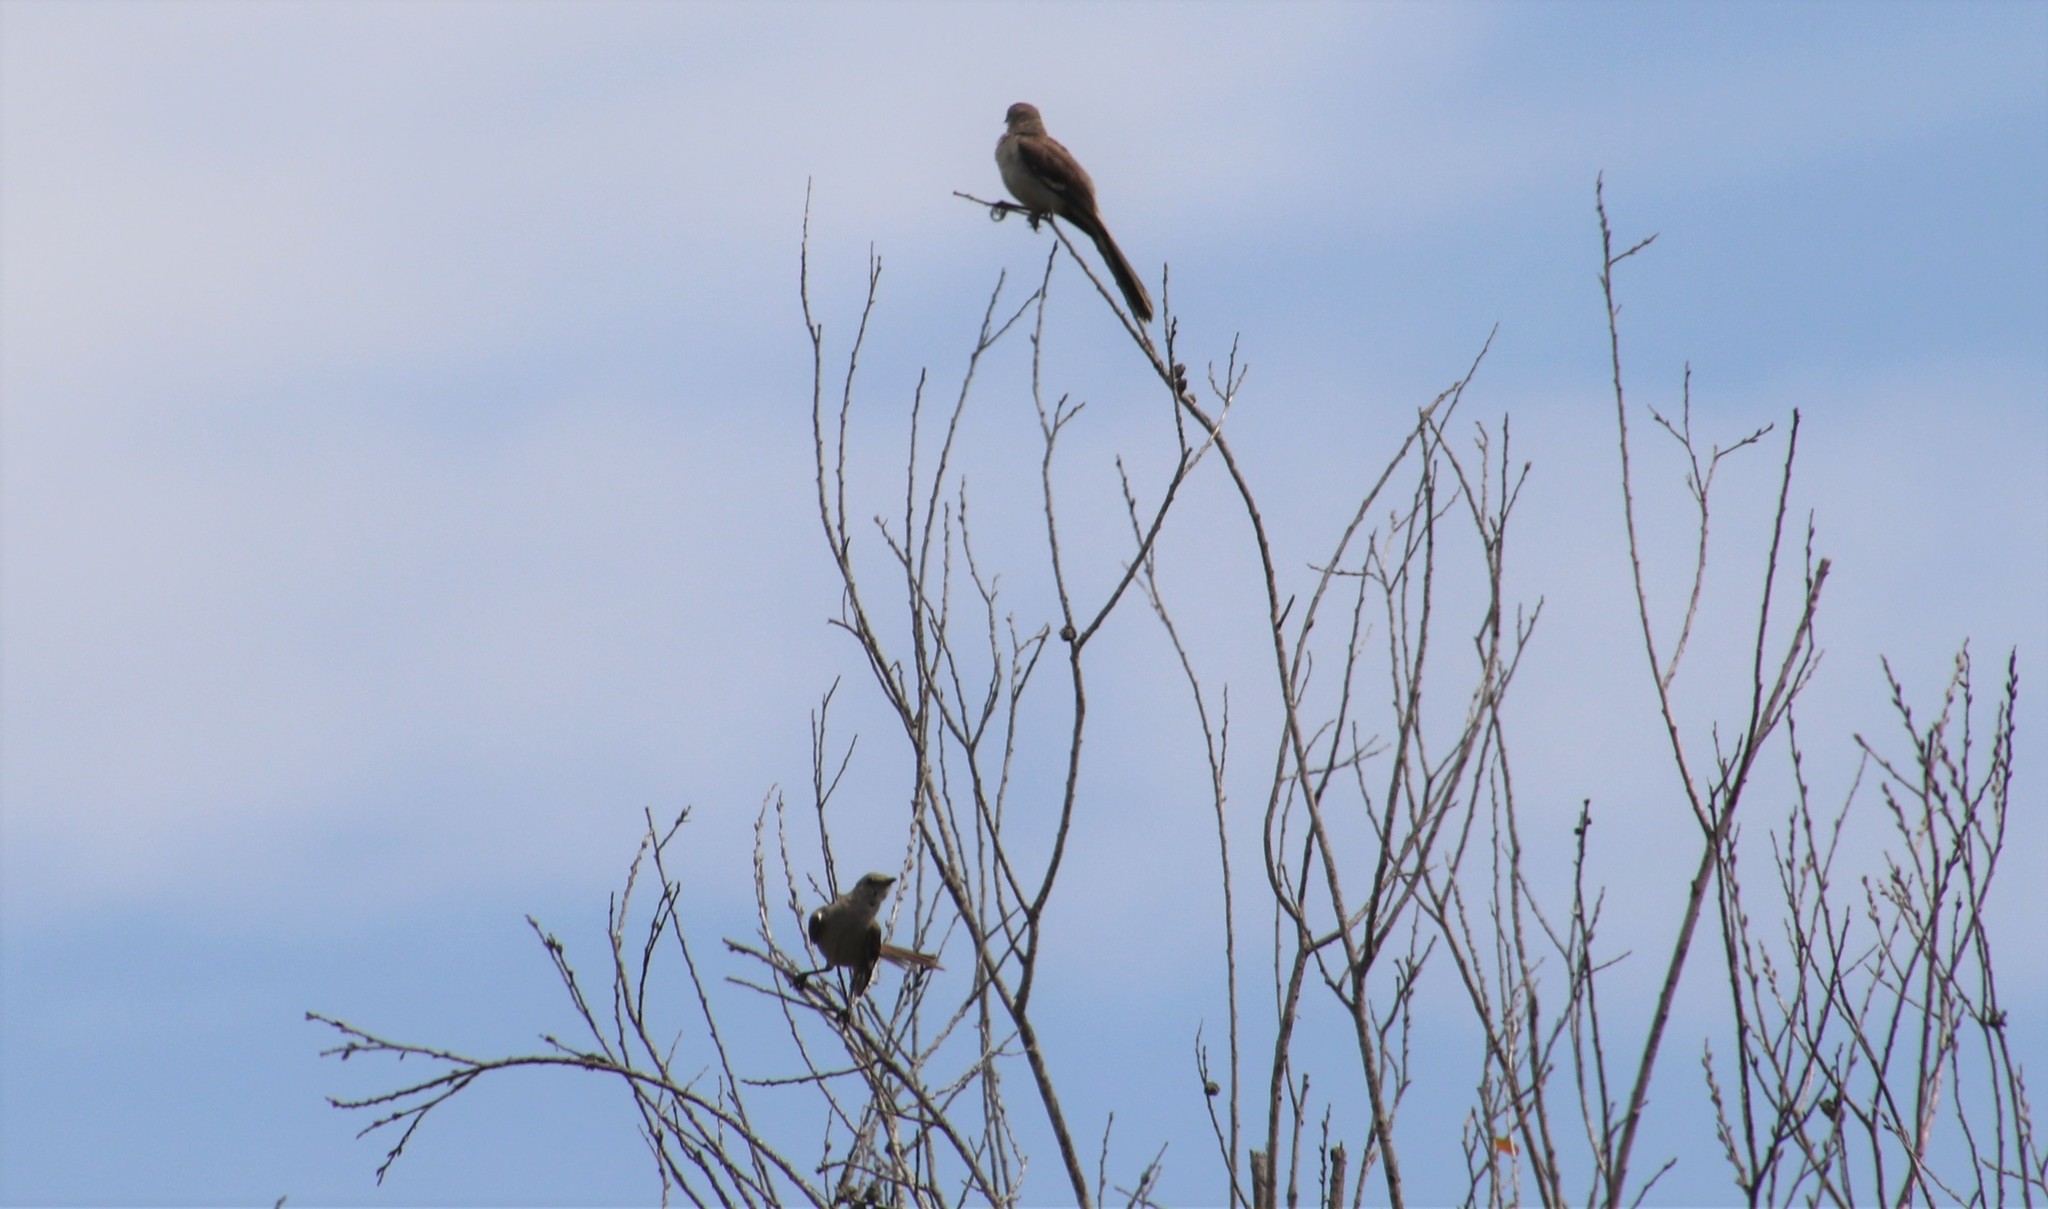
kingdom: Animalia
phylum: Chordata
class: Aves
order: Passeriformes
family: Mimidae
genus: Mimus
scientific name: Mimus polyglottos
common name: Northern mockingbird
